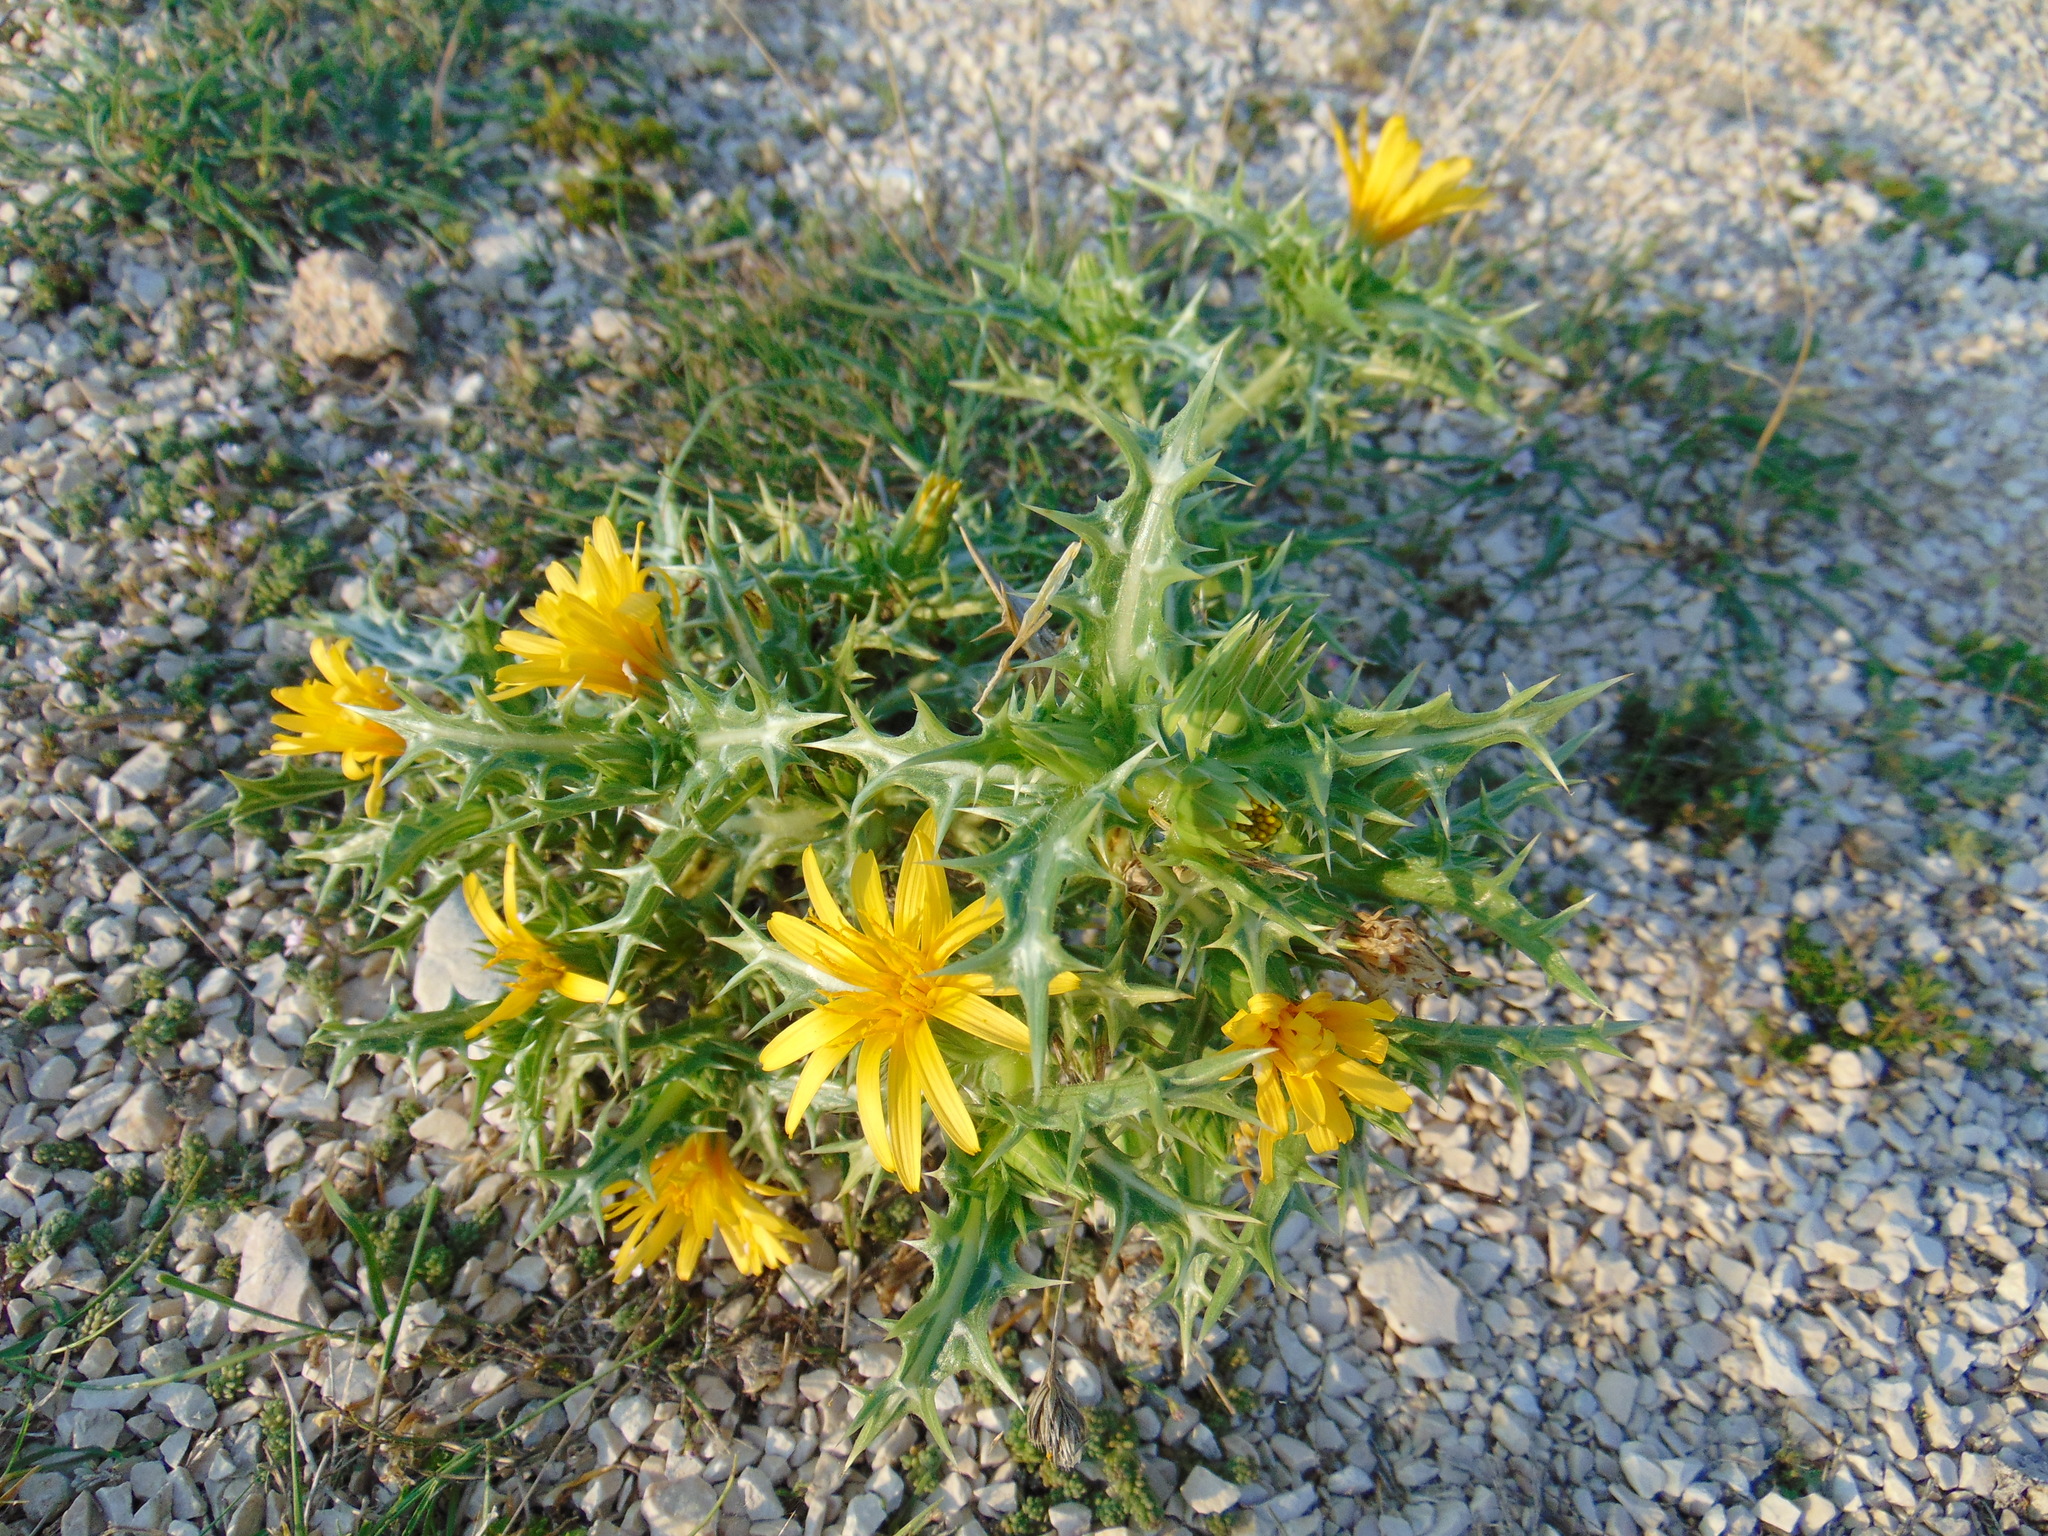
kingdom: Plantae
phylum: Tracheophyta
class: Magnoliopsida
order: Asterales
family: Asteraceae
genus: Scolymus
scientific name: Scolymus hispanicus
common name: Golden thistle
